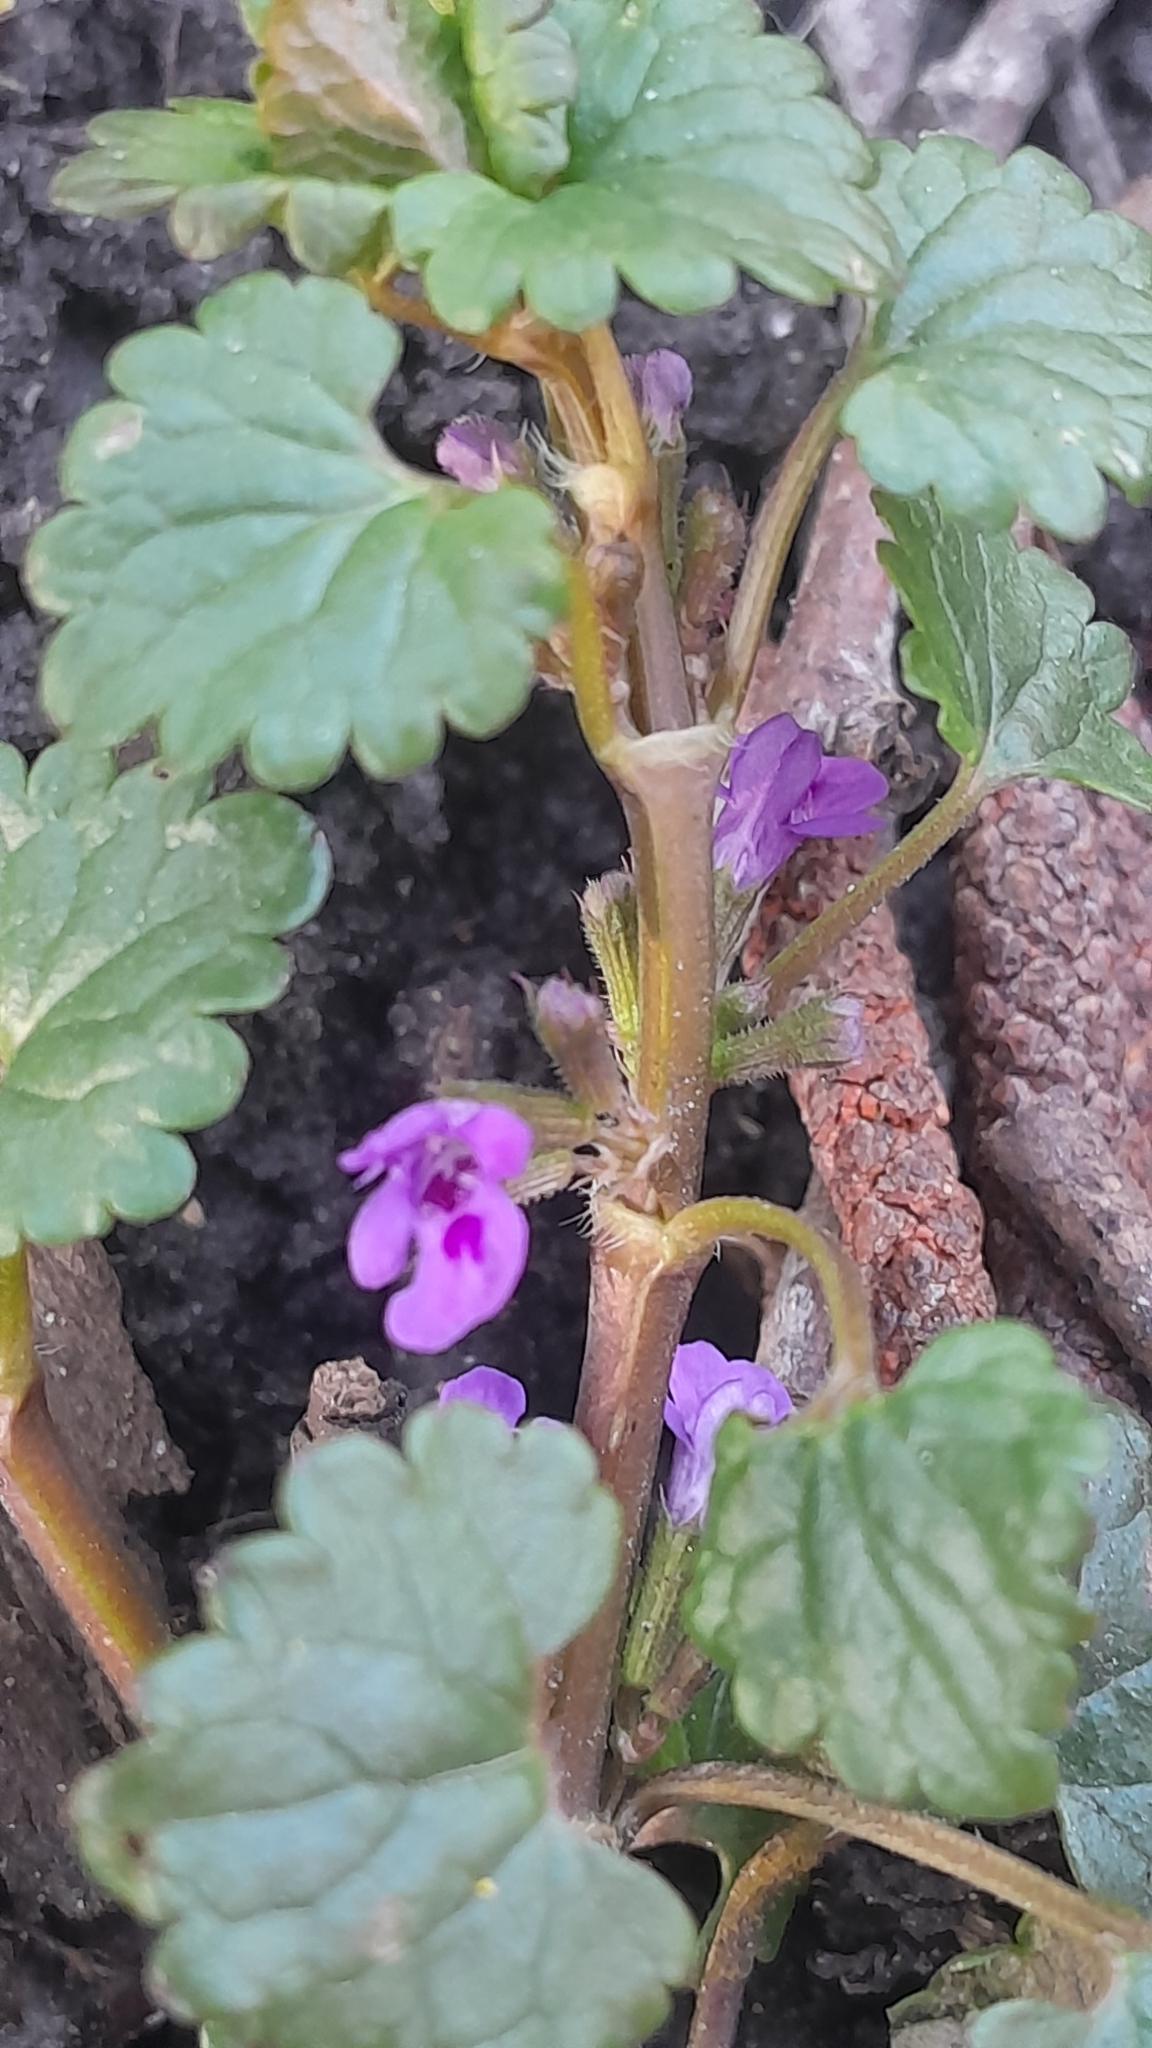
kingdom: Plantae
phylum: Tracheophyta
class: Magnoliopsida
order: Lamiales
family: Lamiaceae
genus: Glechoma
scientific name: Glechoma hederacea
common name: Ground ivy
